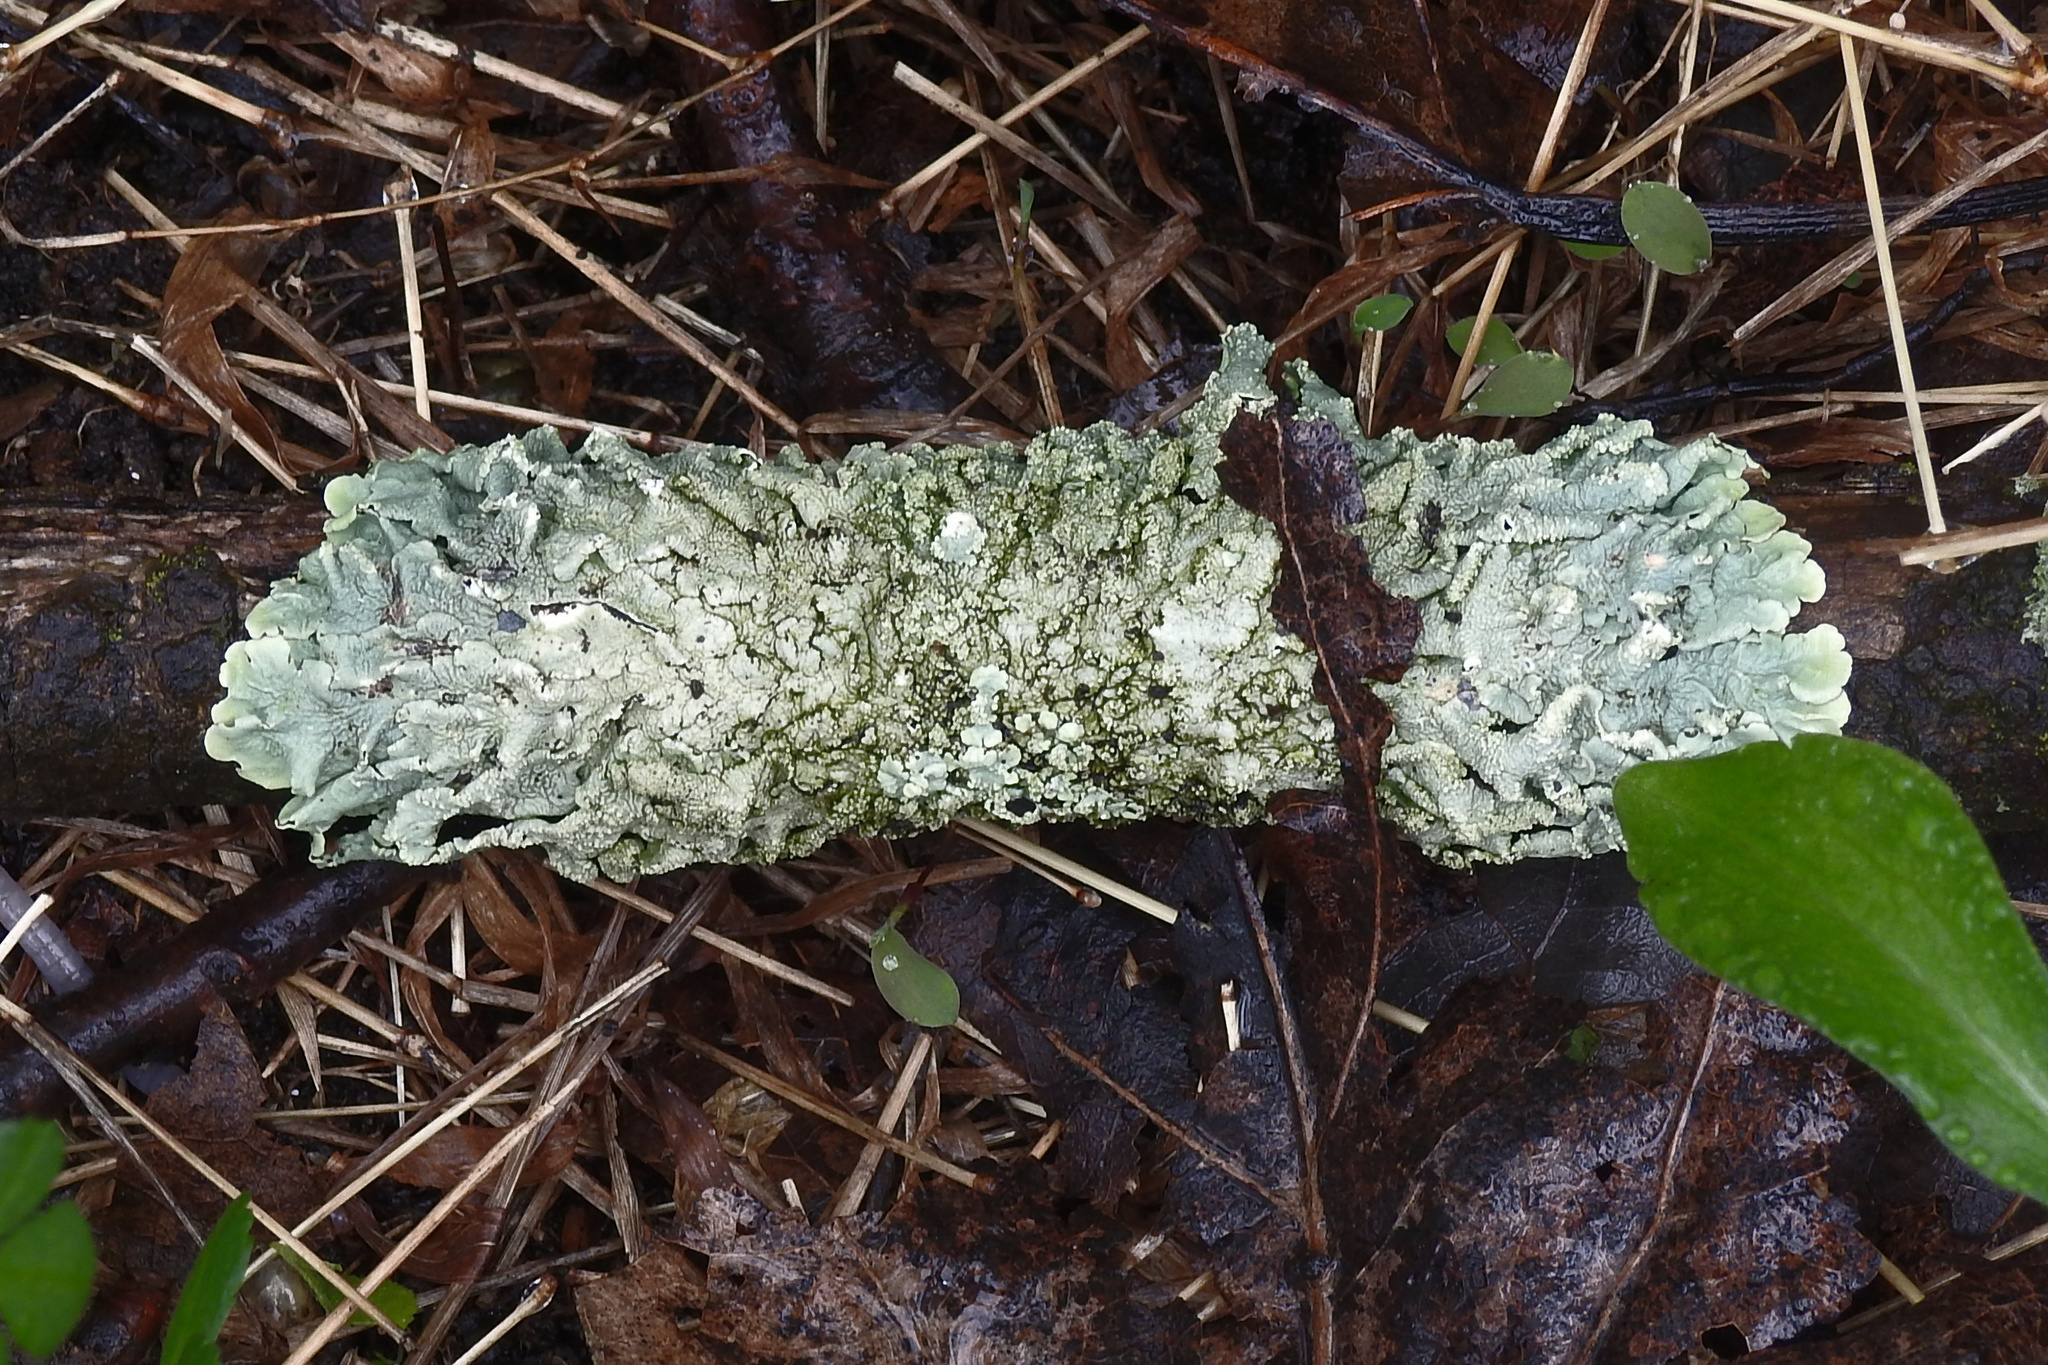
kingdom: Fungi
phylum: Ascomycota
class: Lecanoromycetes
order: Lecanorales
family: Parmeliaceae
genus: Flavoparmelia
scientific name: Flavoparmelia caperata
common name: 40-mile per hour lichen
